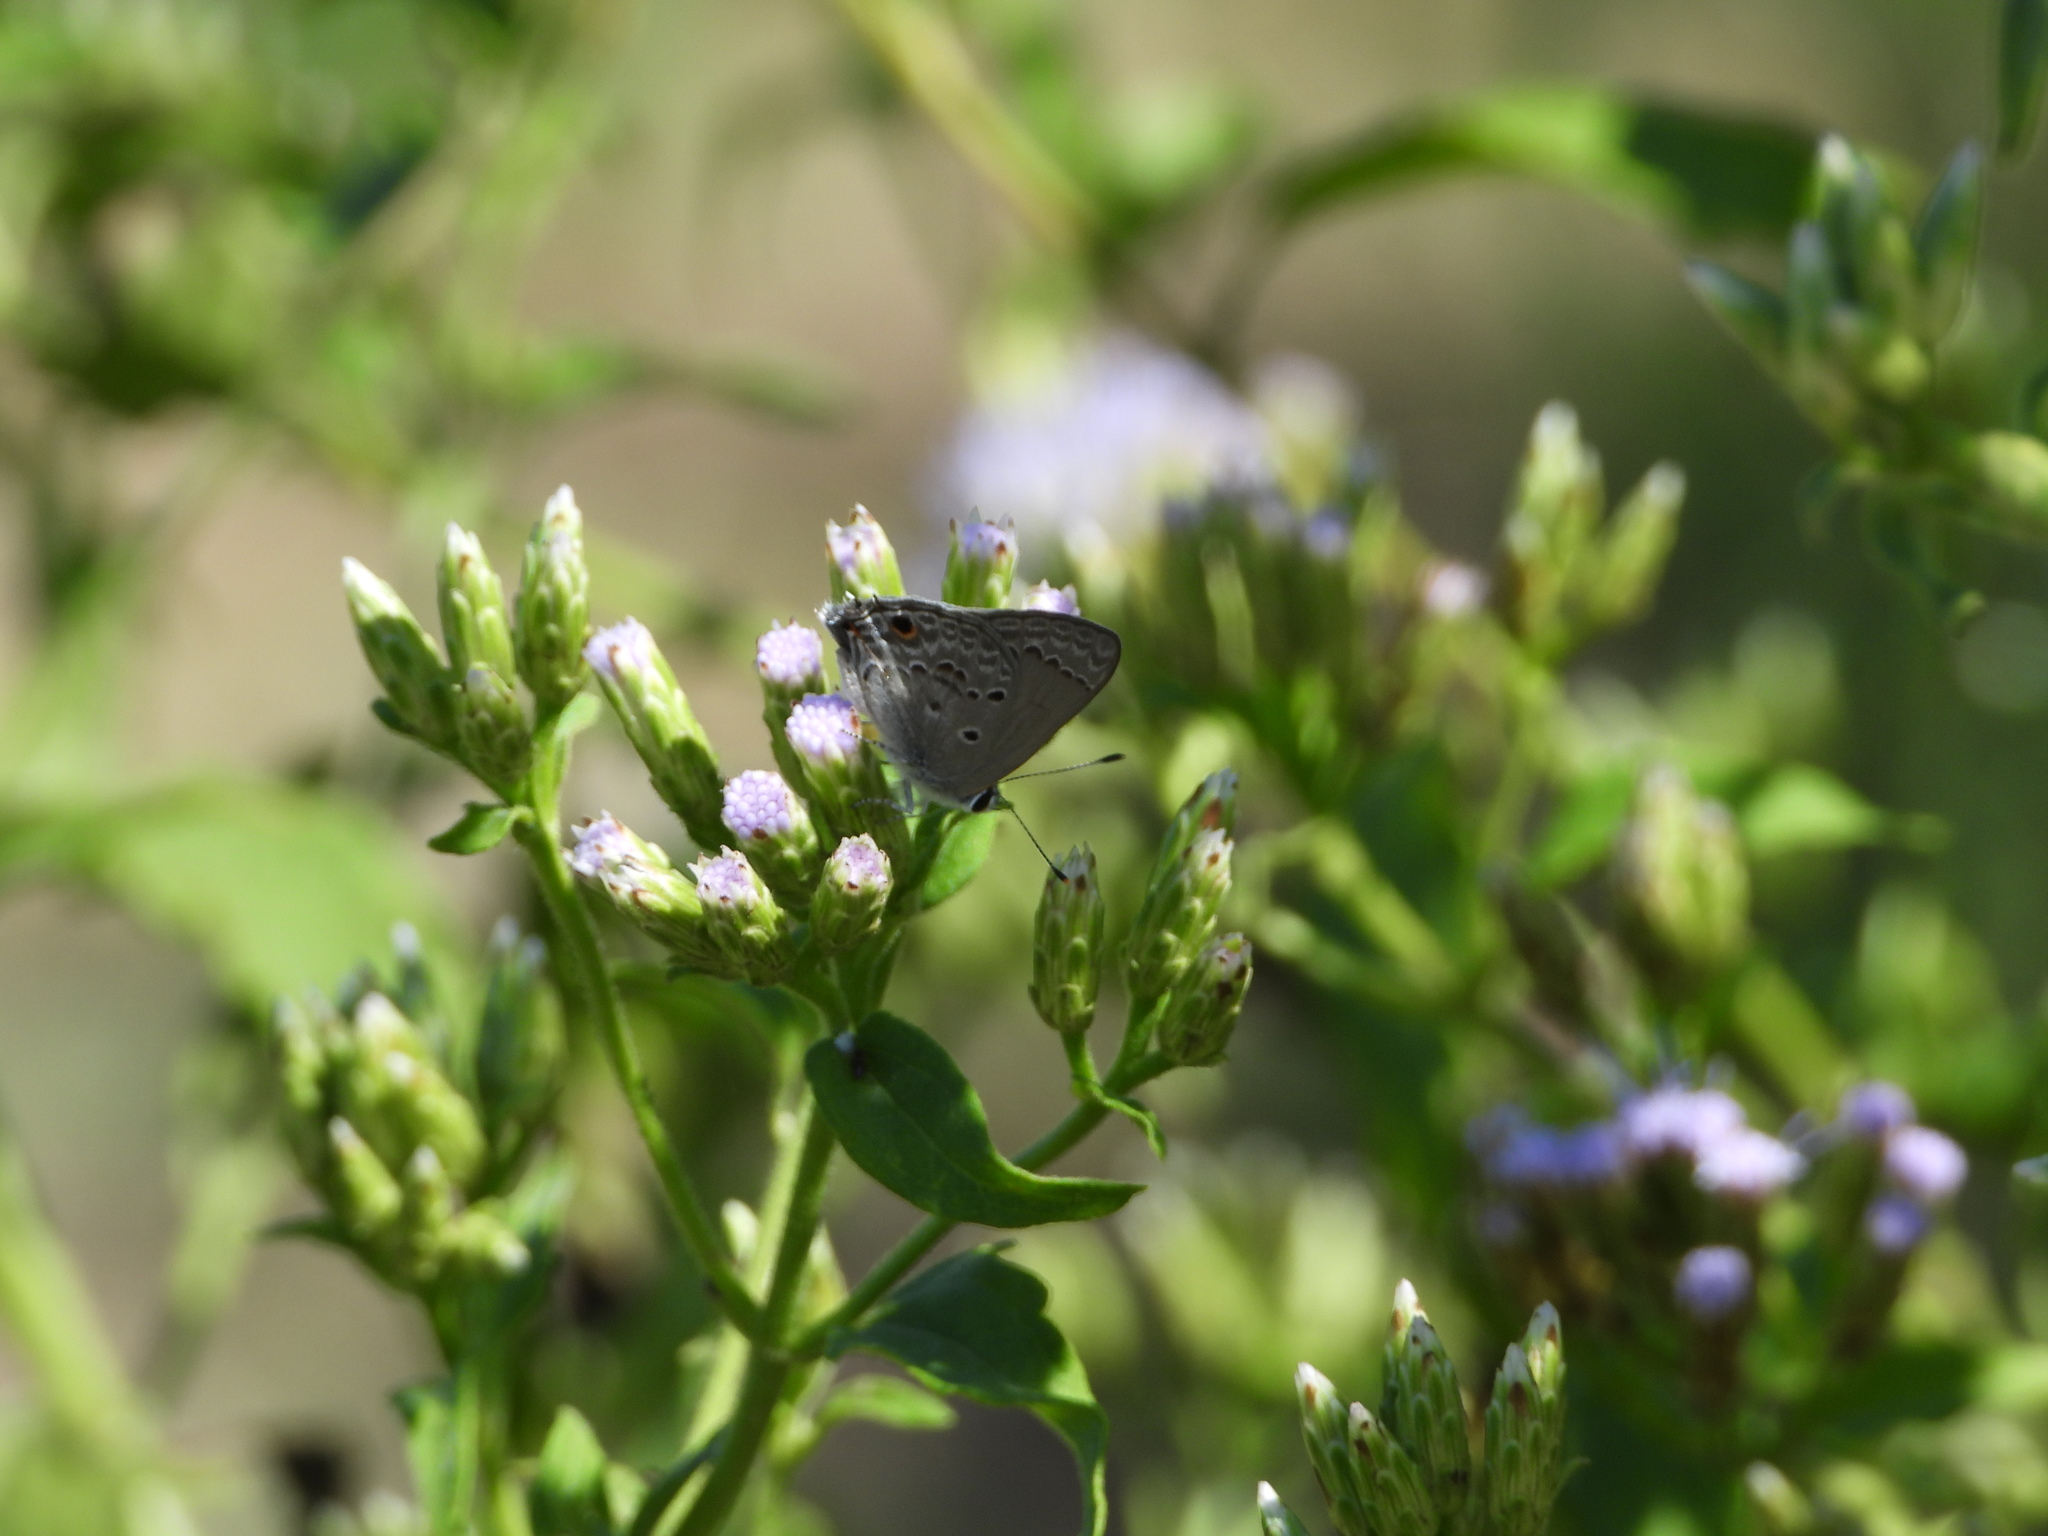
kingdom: Animalia
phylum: Arthropoda
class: Insecta
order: Lepidoptera
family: Lycaenidae
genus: Callicista
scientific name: Callicista columella
